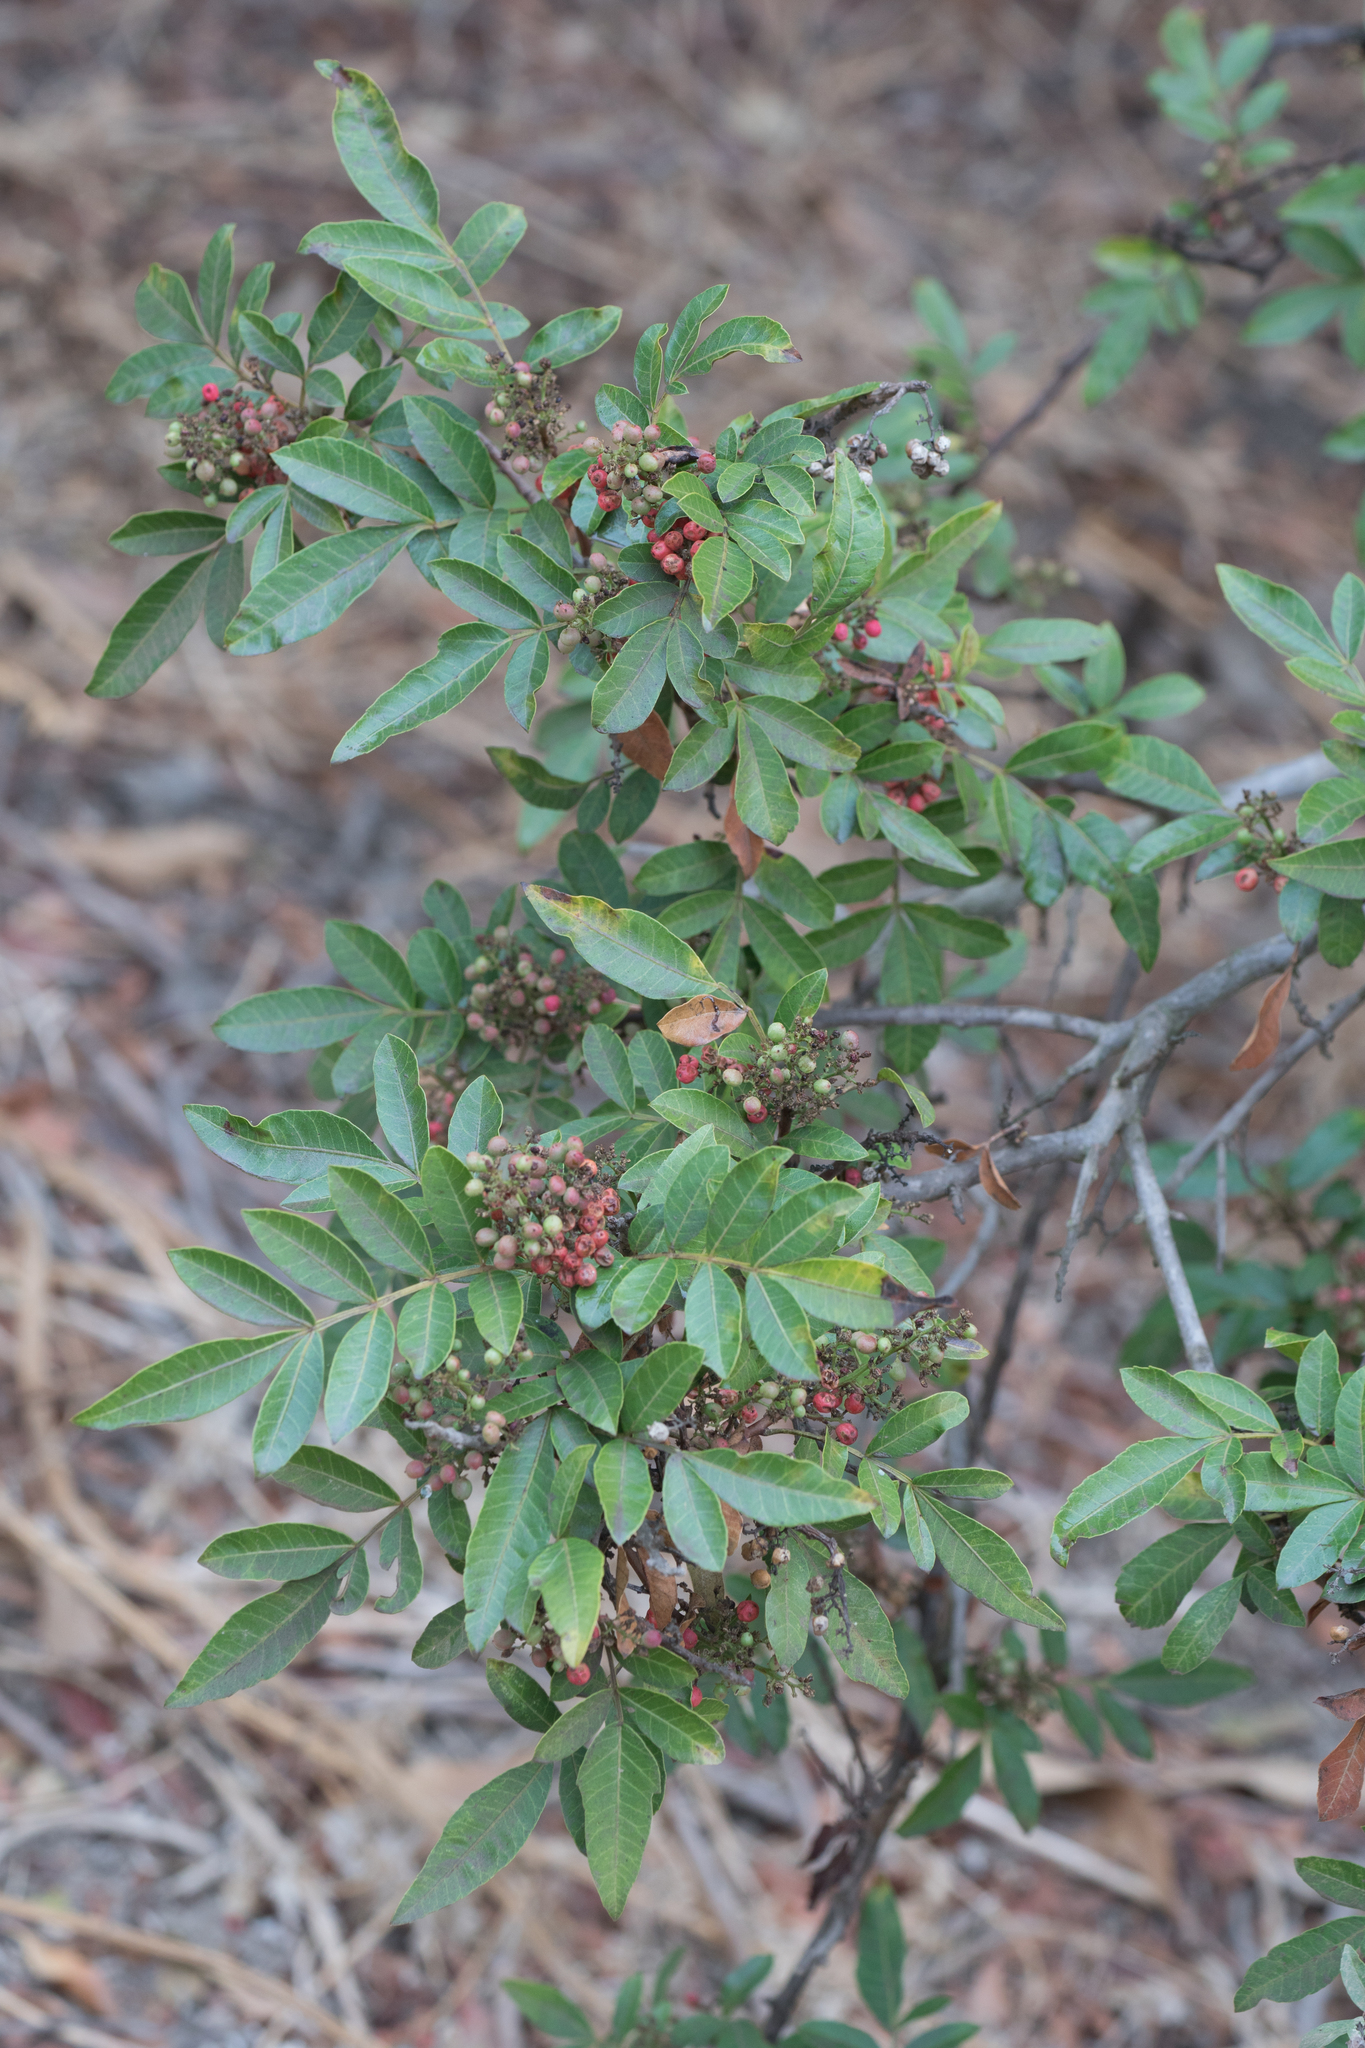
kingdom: Plantae
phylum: Tracheophyta
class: Magnoliopsida
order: Sapindales
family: Anacardiaceae
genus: Schinus
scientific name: Schinus terebinthifolia
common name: Brazilian peppertree
